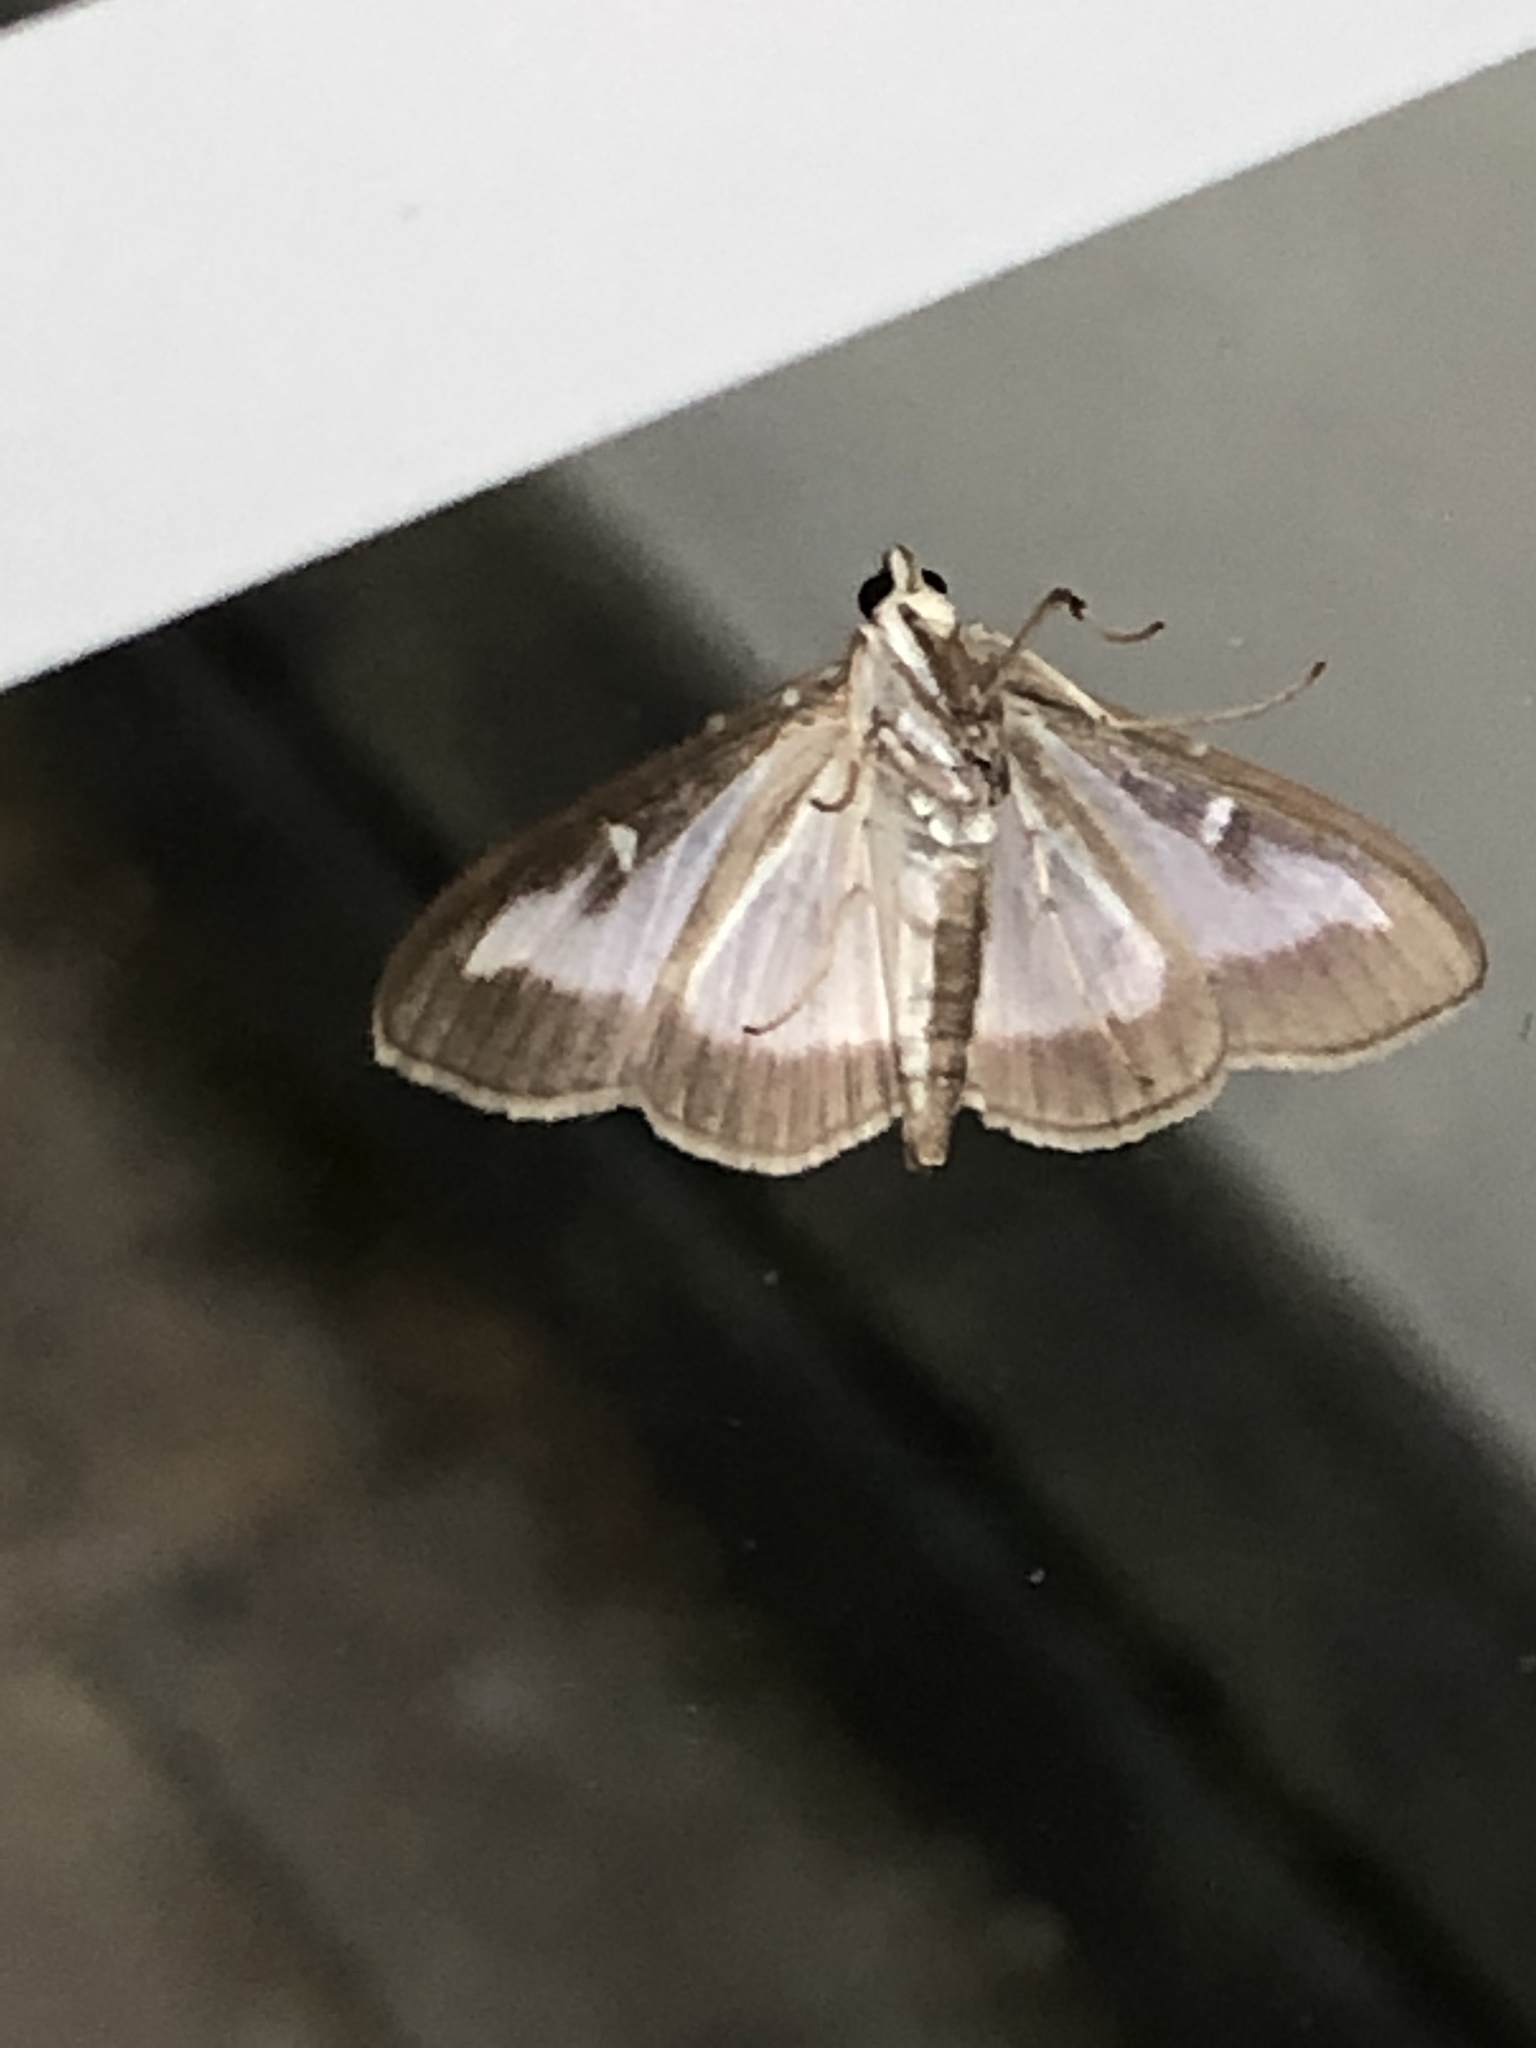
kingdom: Animalia
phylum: Arthropoda
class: Insecta
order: Lepidoptera
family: Crambidae
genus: Cydalima
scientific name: Cydalima perspectalis
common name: Box tree moth
